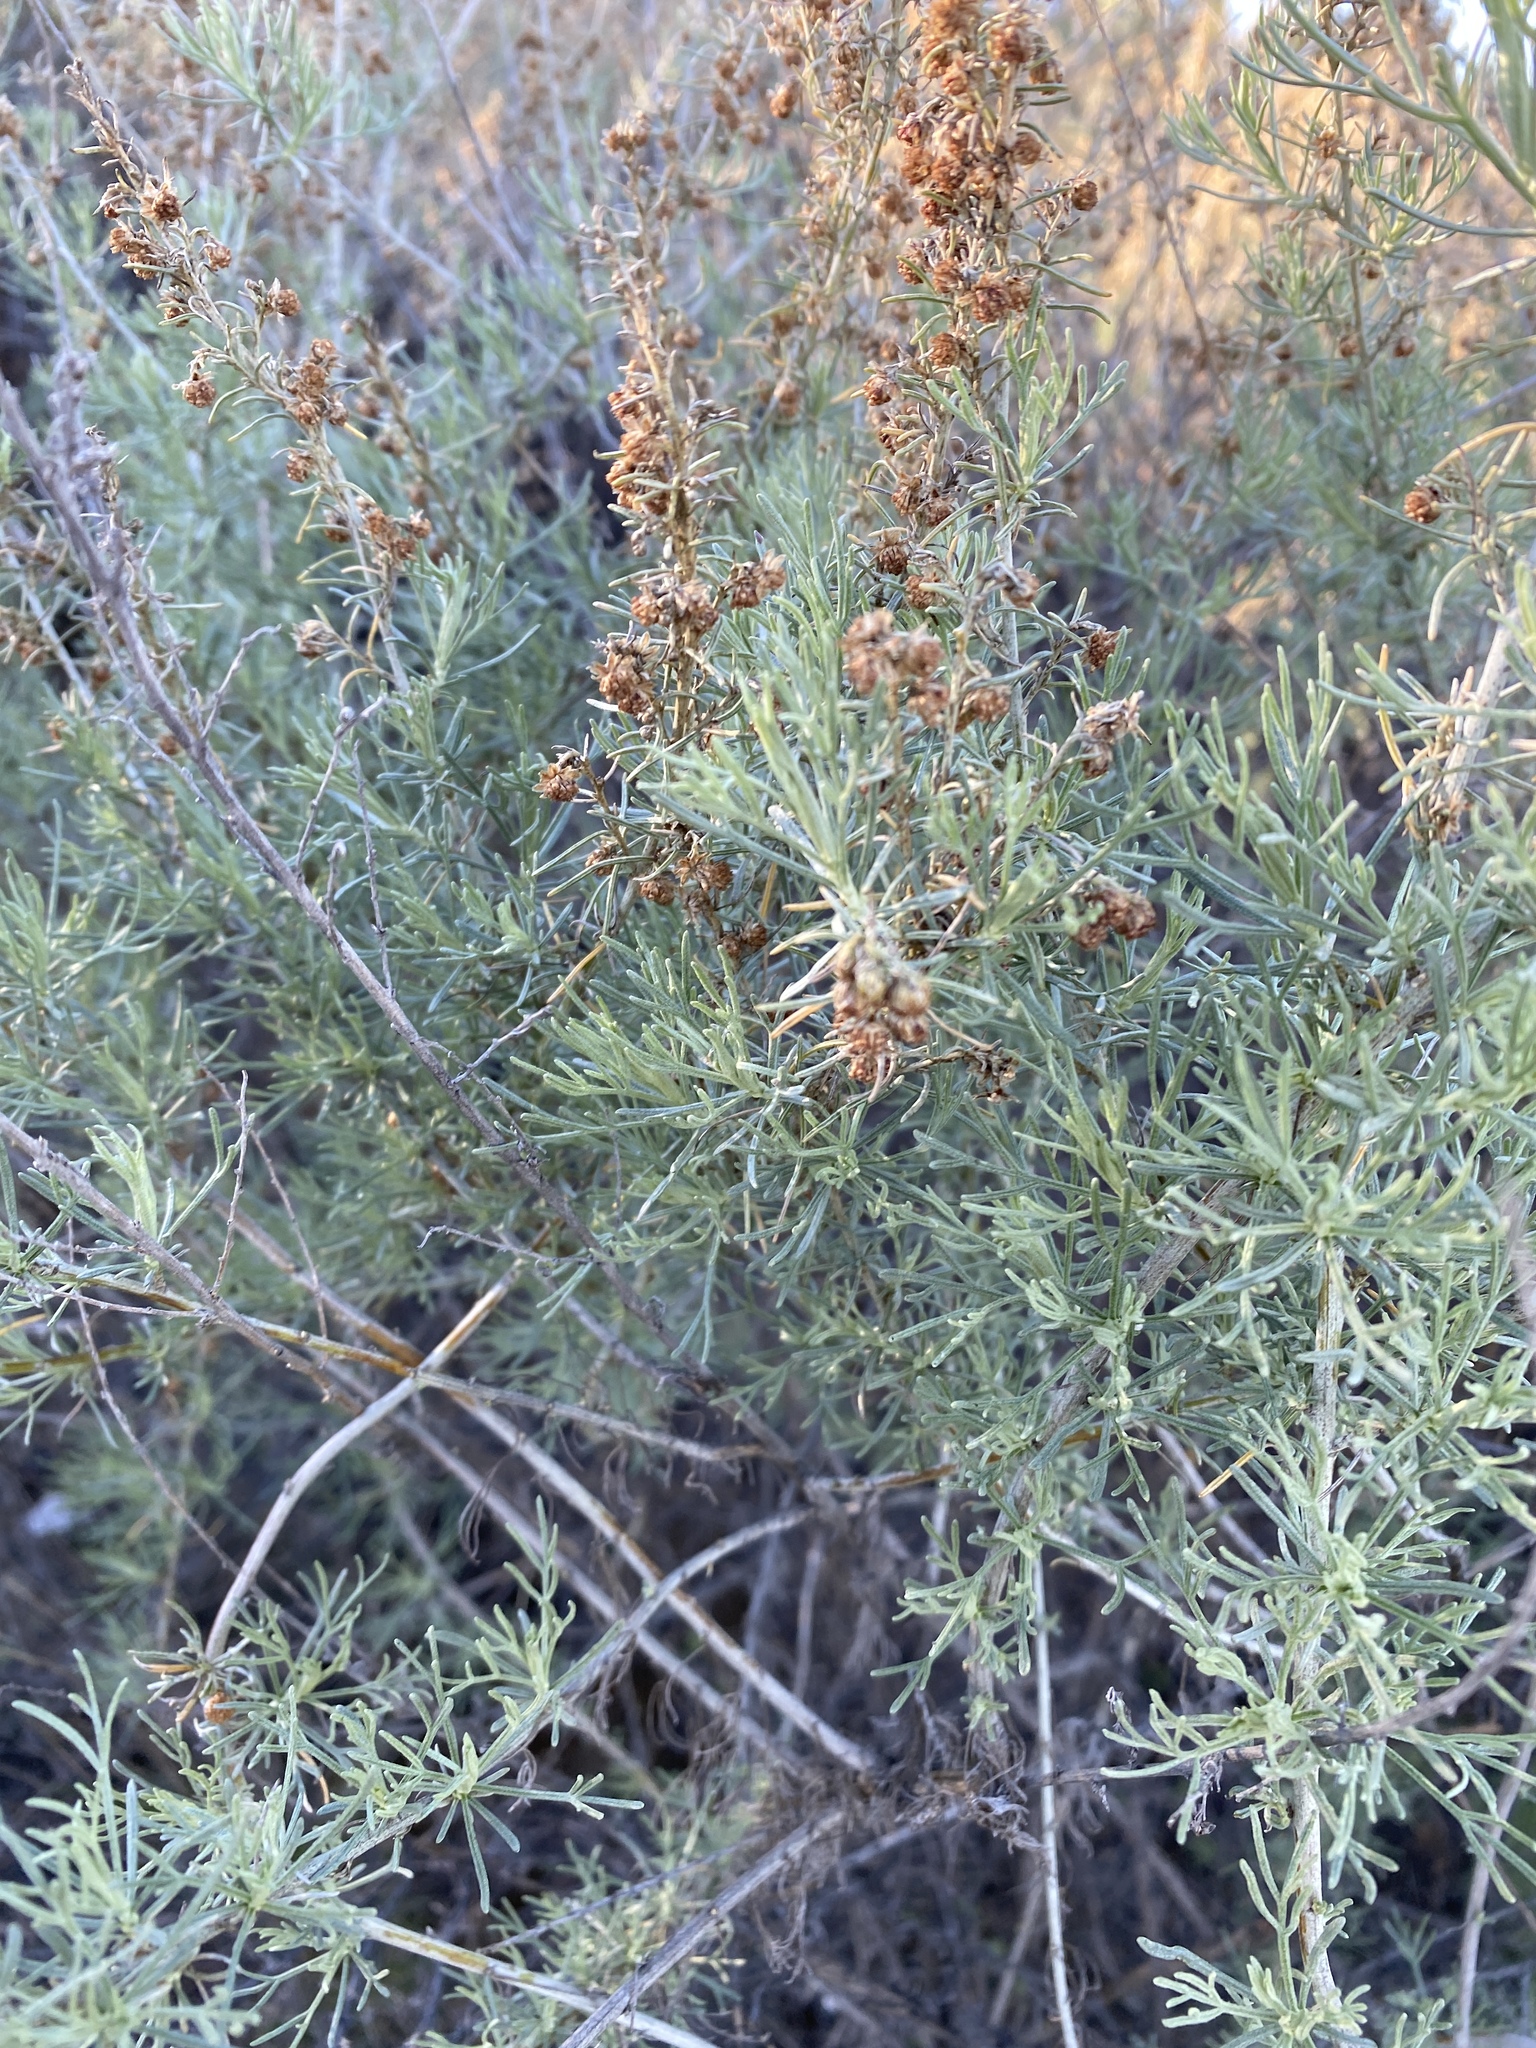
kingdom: Plantae
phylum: Tracheophyta
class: Magnoliopsida
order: Asterales
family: Asteraceae
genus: Artemisia
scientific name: Artemisia californica
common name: California sagebrush
